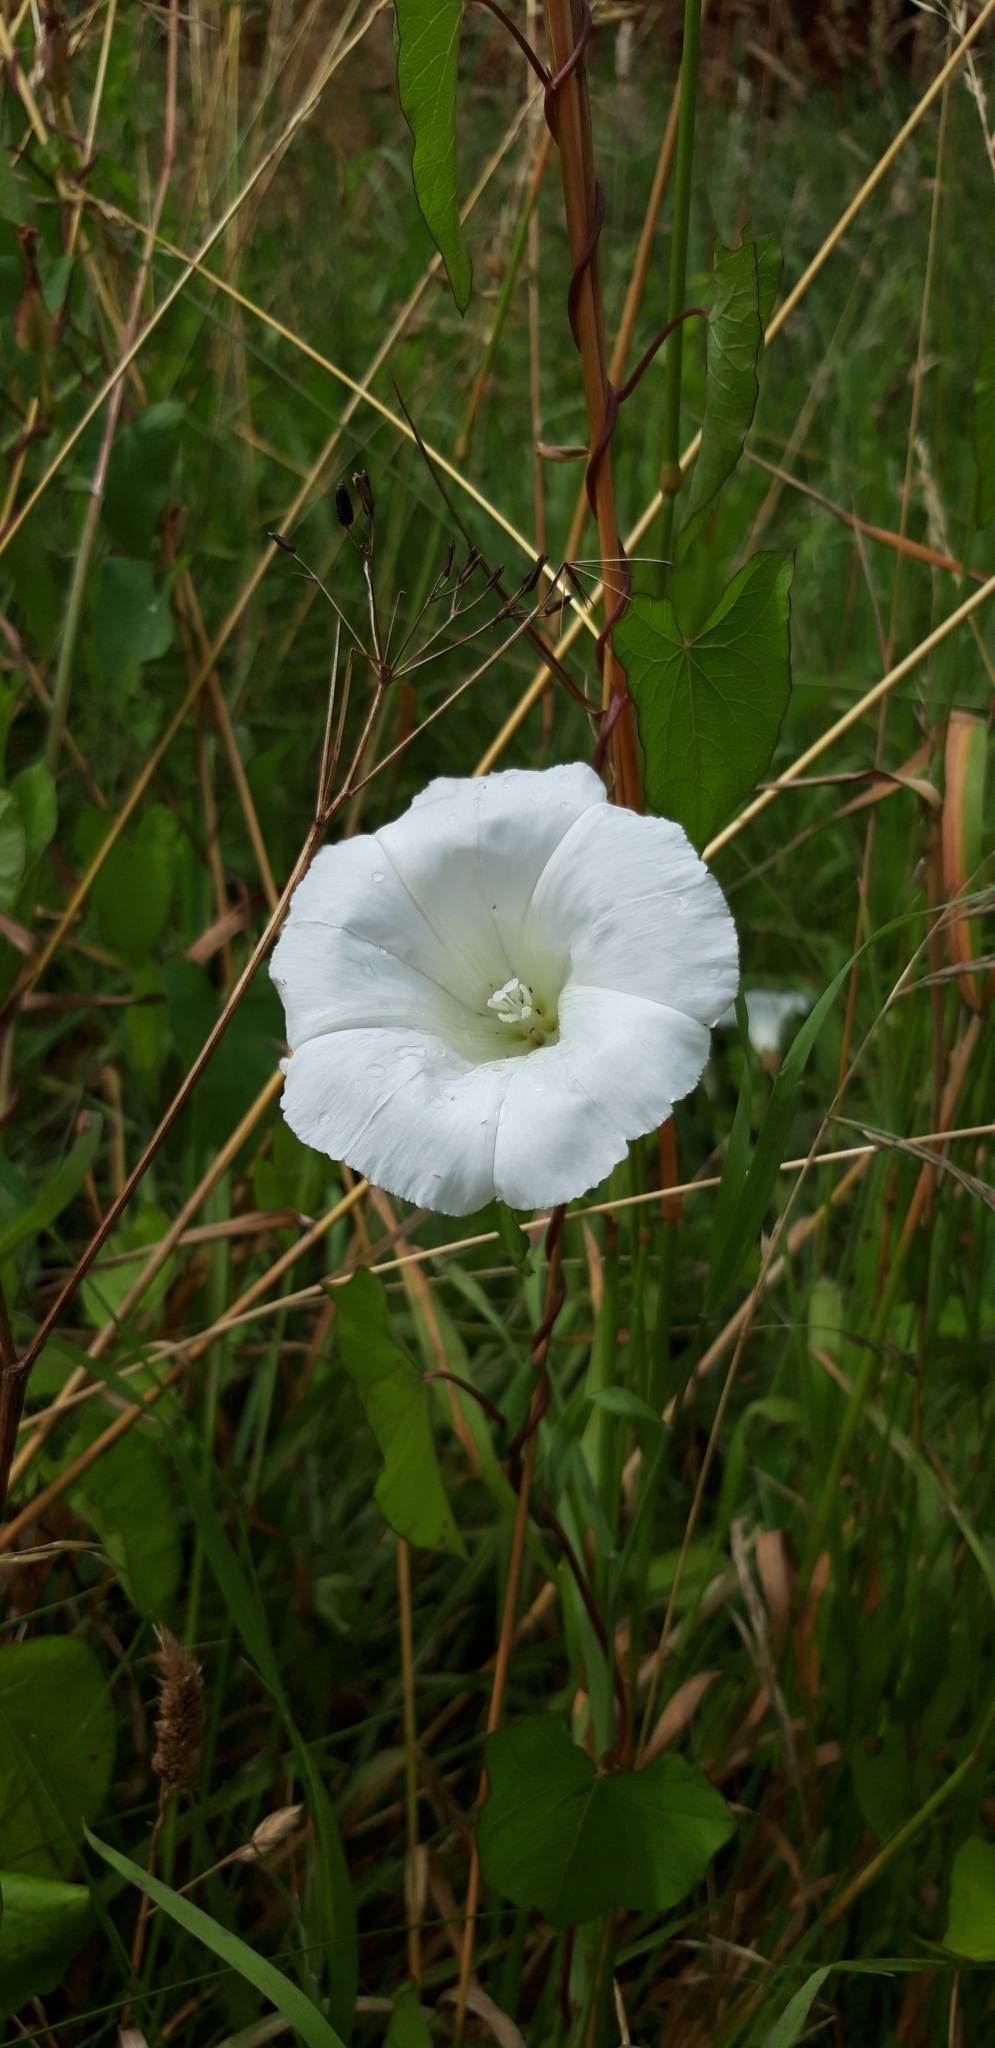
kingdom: Plantae
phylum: Tracheophyta
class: Magnoliopsida
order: Solanales
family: Convolvulaceae
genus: Calystegia
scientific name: Calystegia sepium
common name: Hedge bindweed
